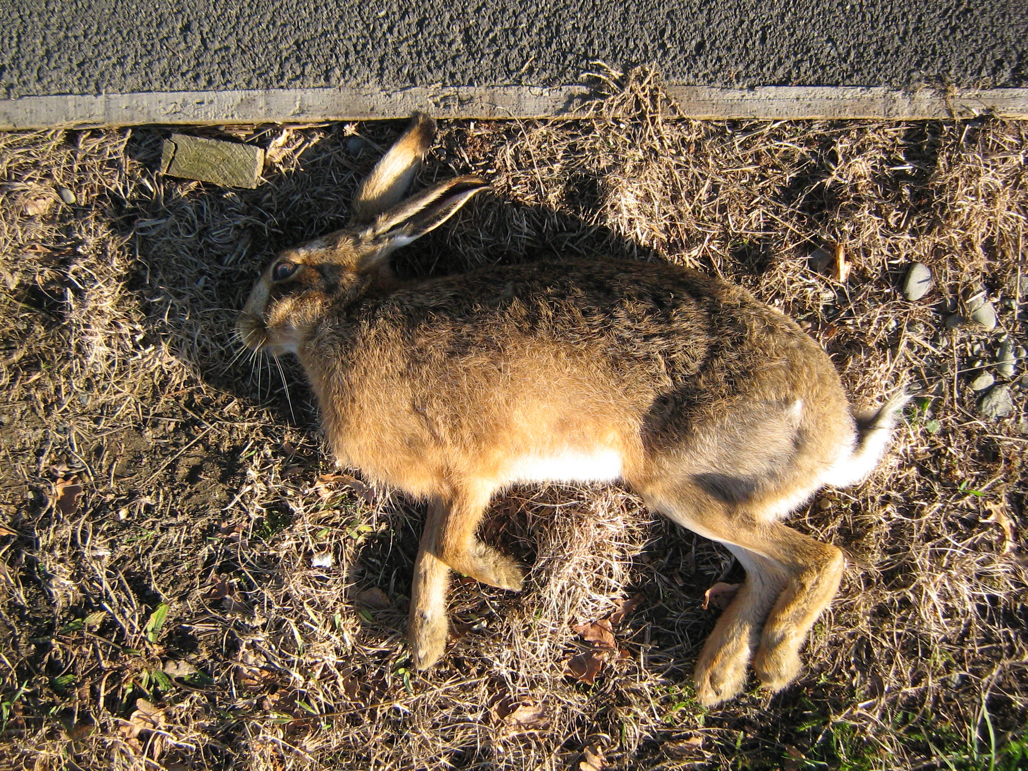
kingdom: Animalia
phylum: Chordata
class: Mammalia
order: Lagomorpha
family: Leporidae
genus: Lepus
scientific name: Lepus europaeus
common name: European hare
